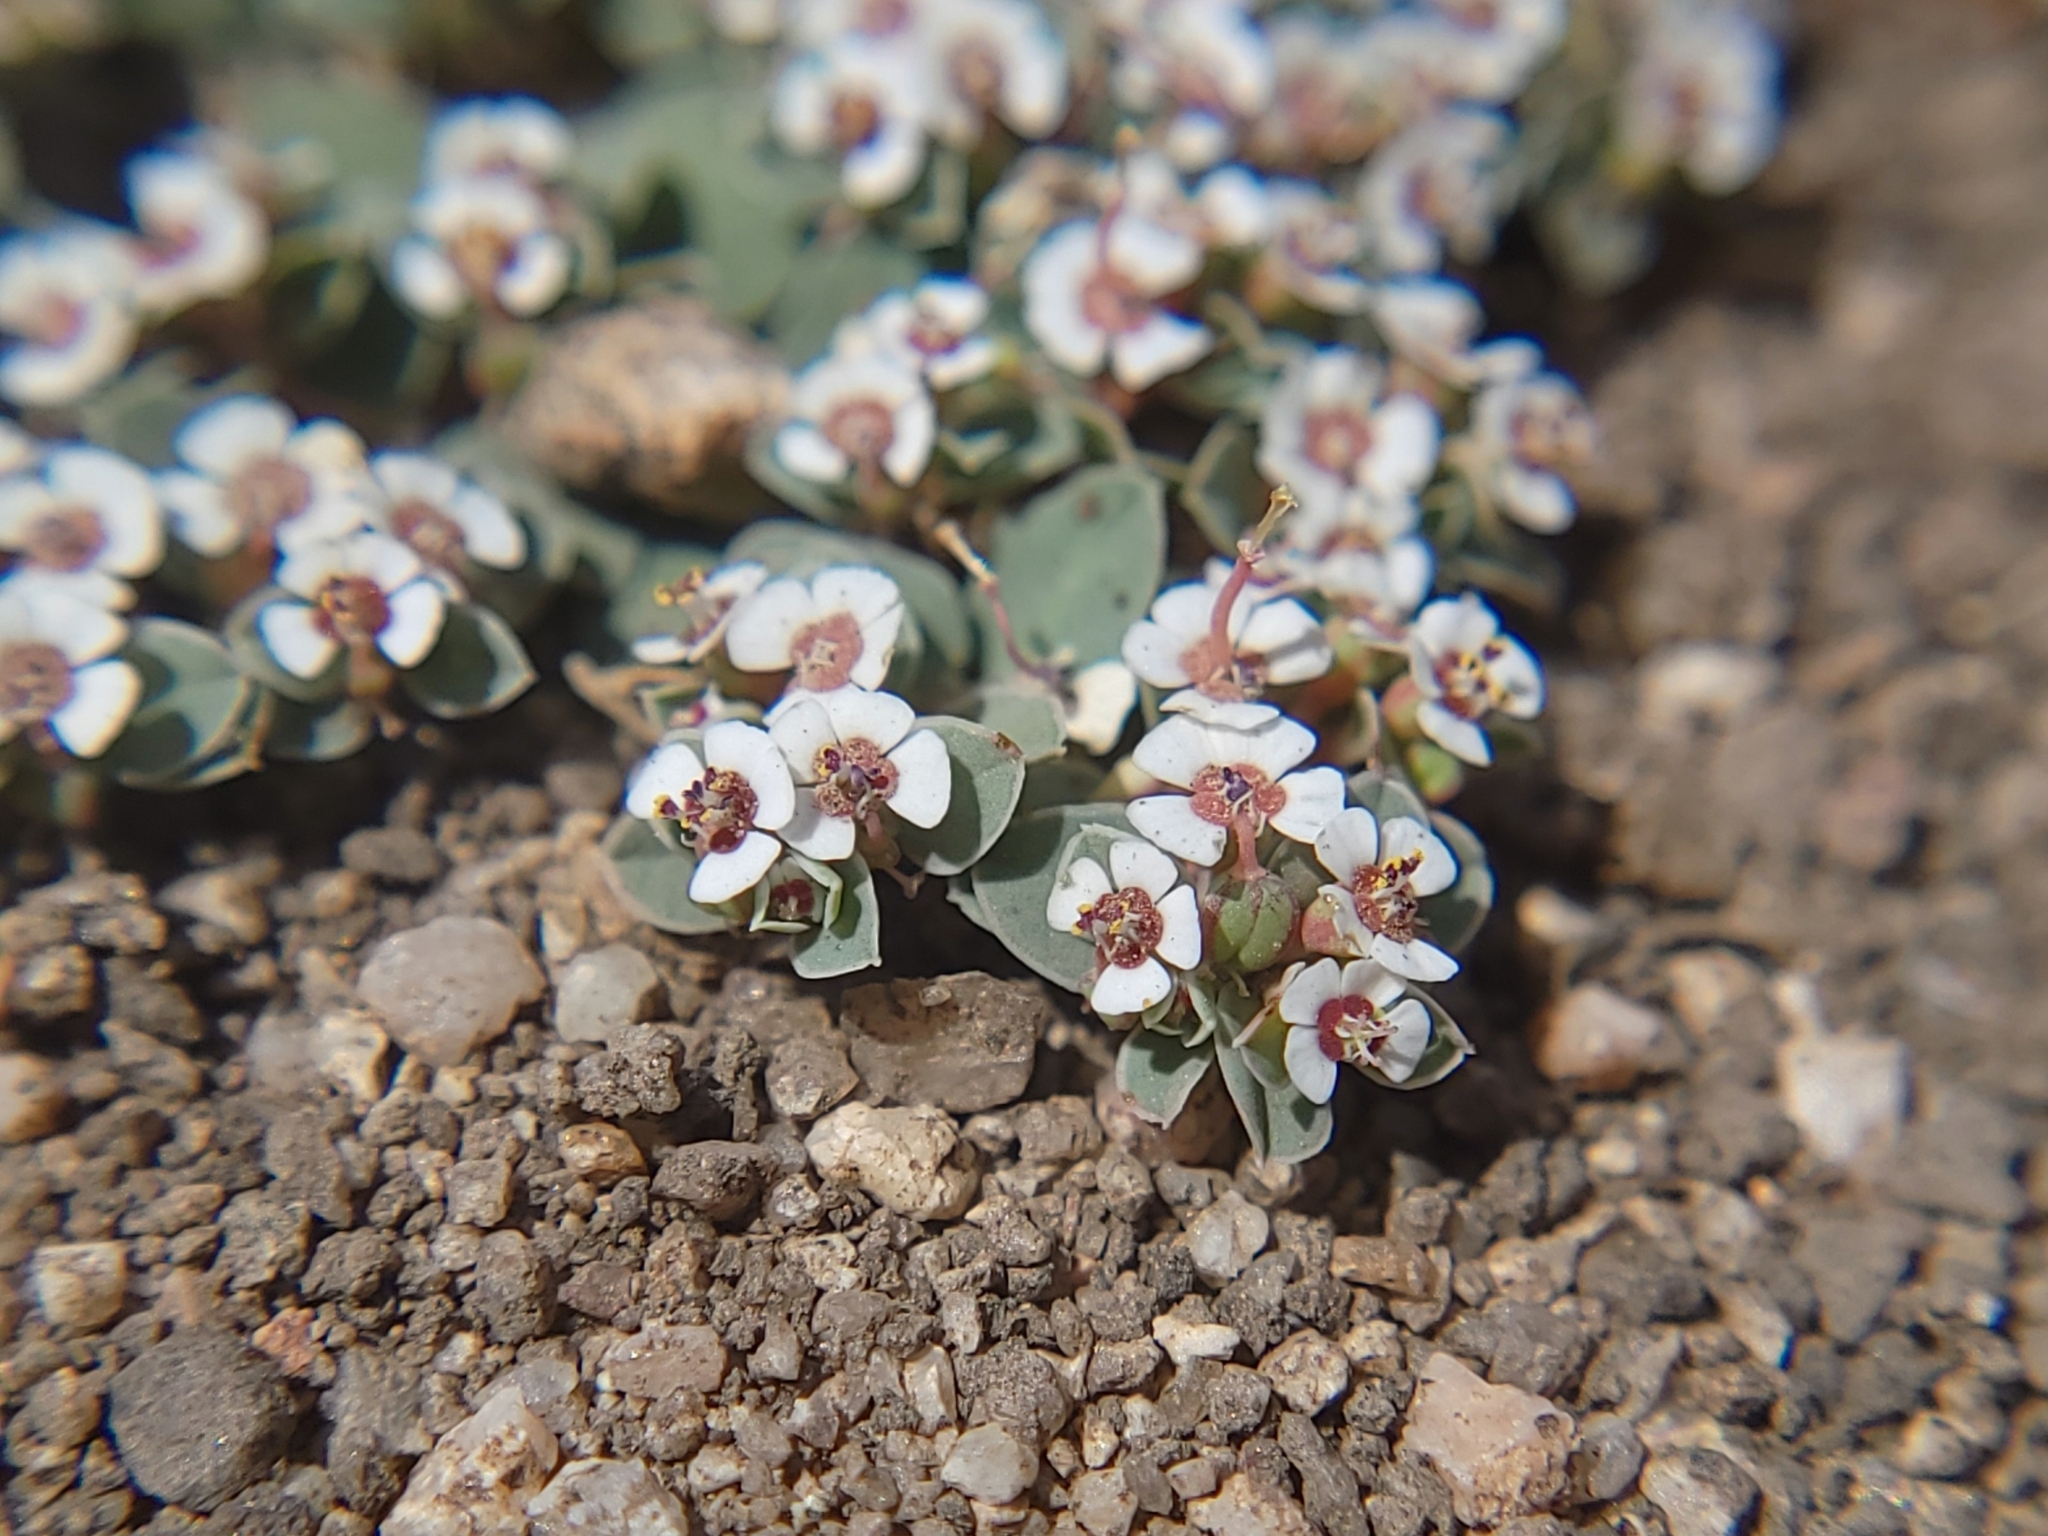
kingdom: Plantae
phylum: Tracheophyta
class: Magnoliopsida
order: Malpighiales
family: Euphorbiaceae
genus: Euphorbia
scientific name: Euphorbia albomarginata
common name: Whitemargin sandmat
